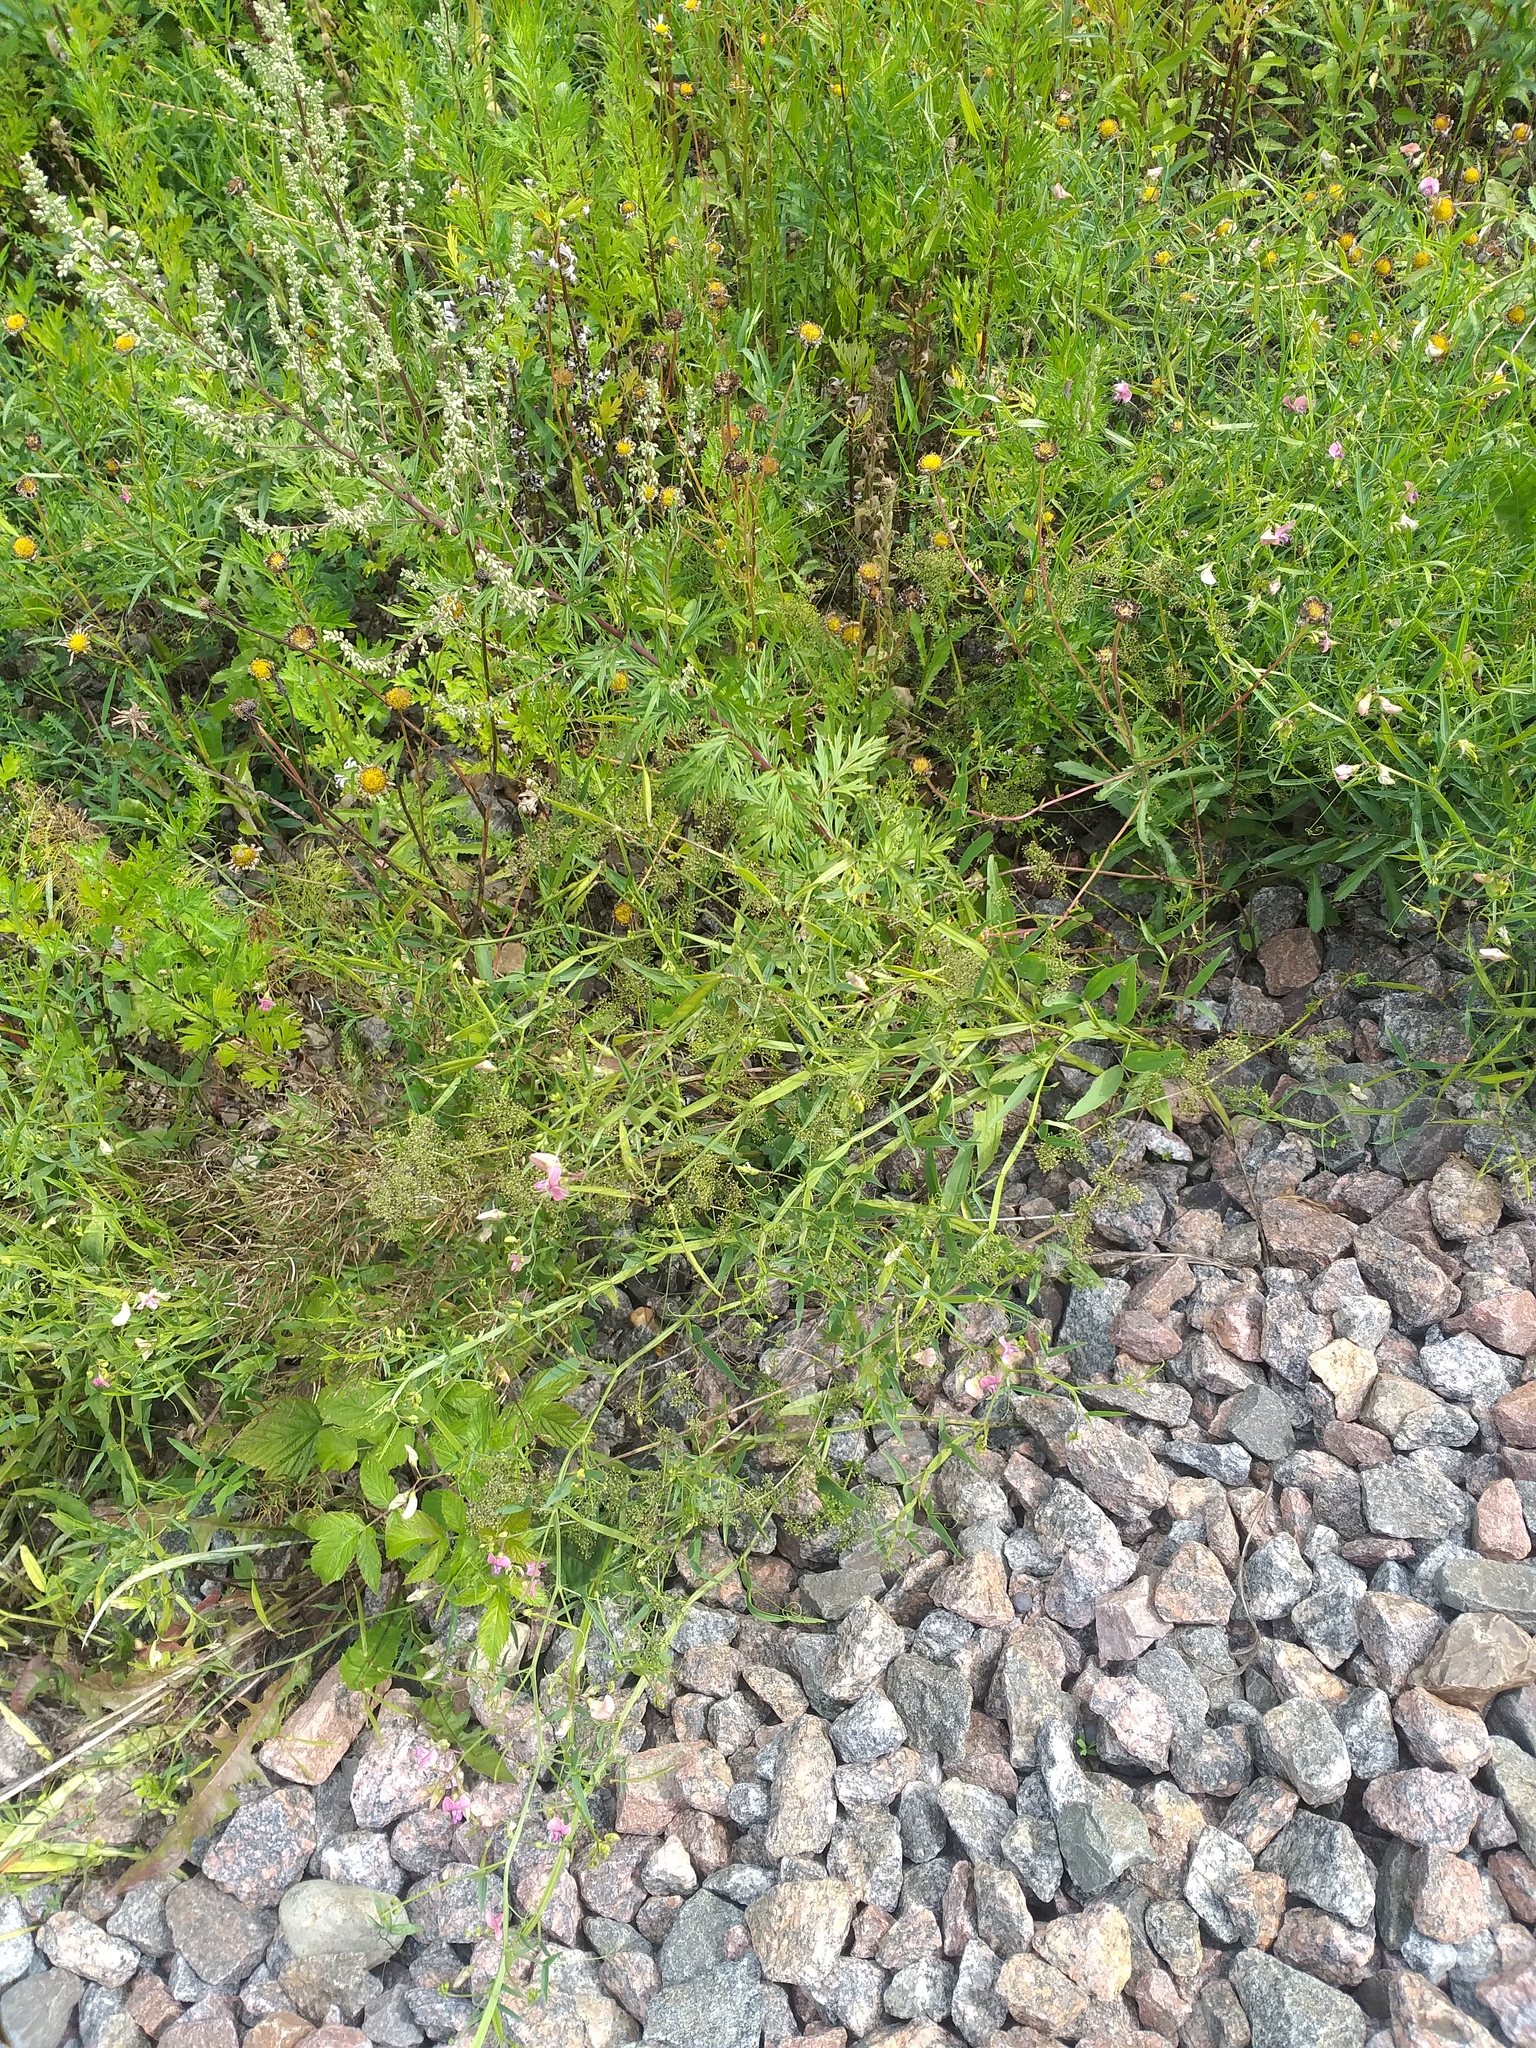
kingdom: Plantae
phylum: Tracheophyta
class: Magnoliopsida
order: Fabales
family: Fabaceae
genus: Lathyrus
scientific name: Lathyrus sylvestris
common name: Flat pea
